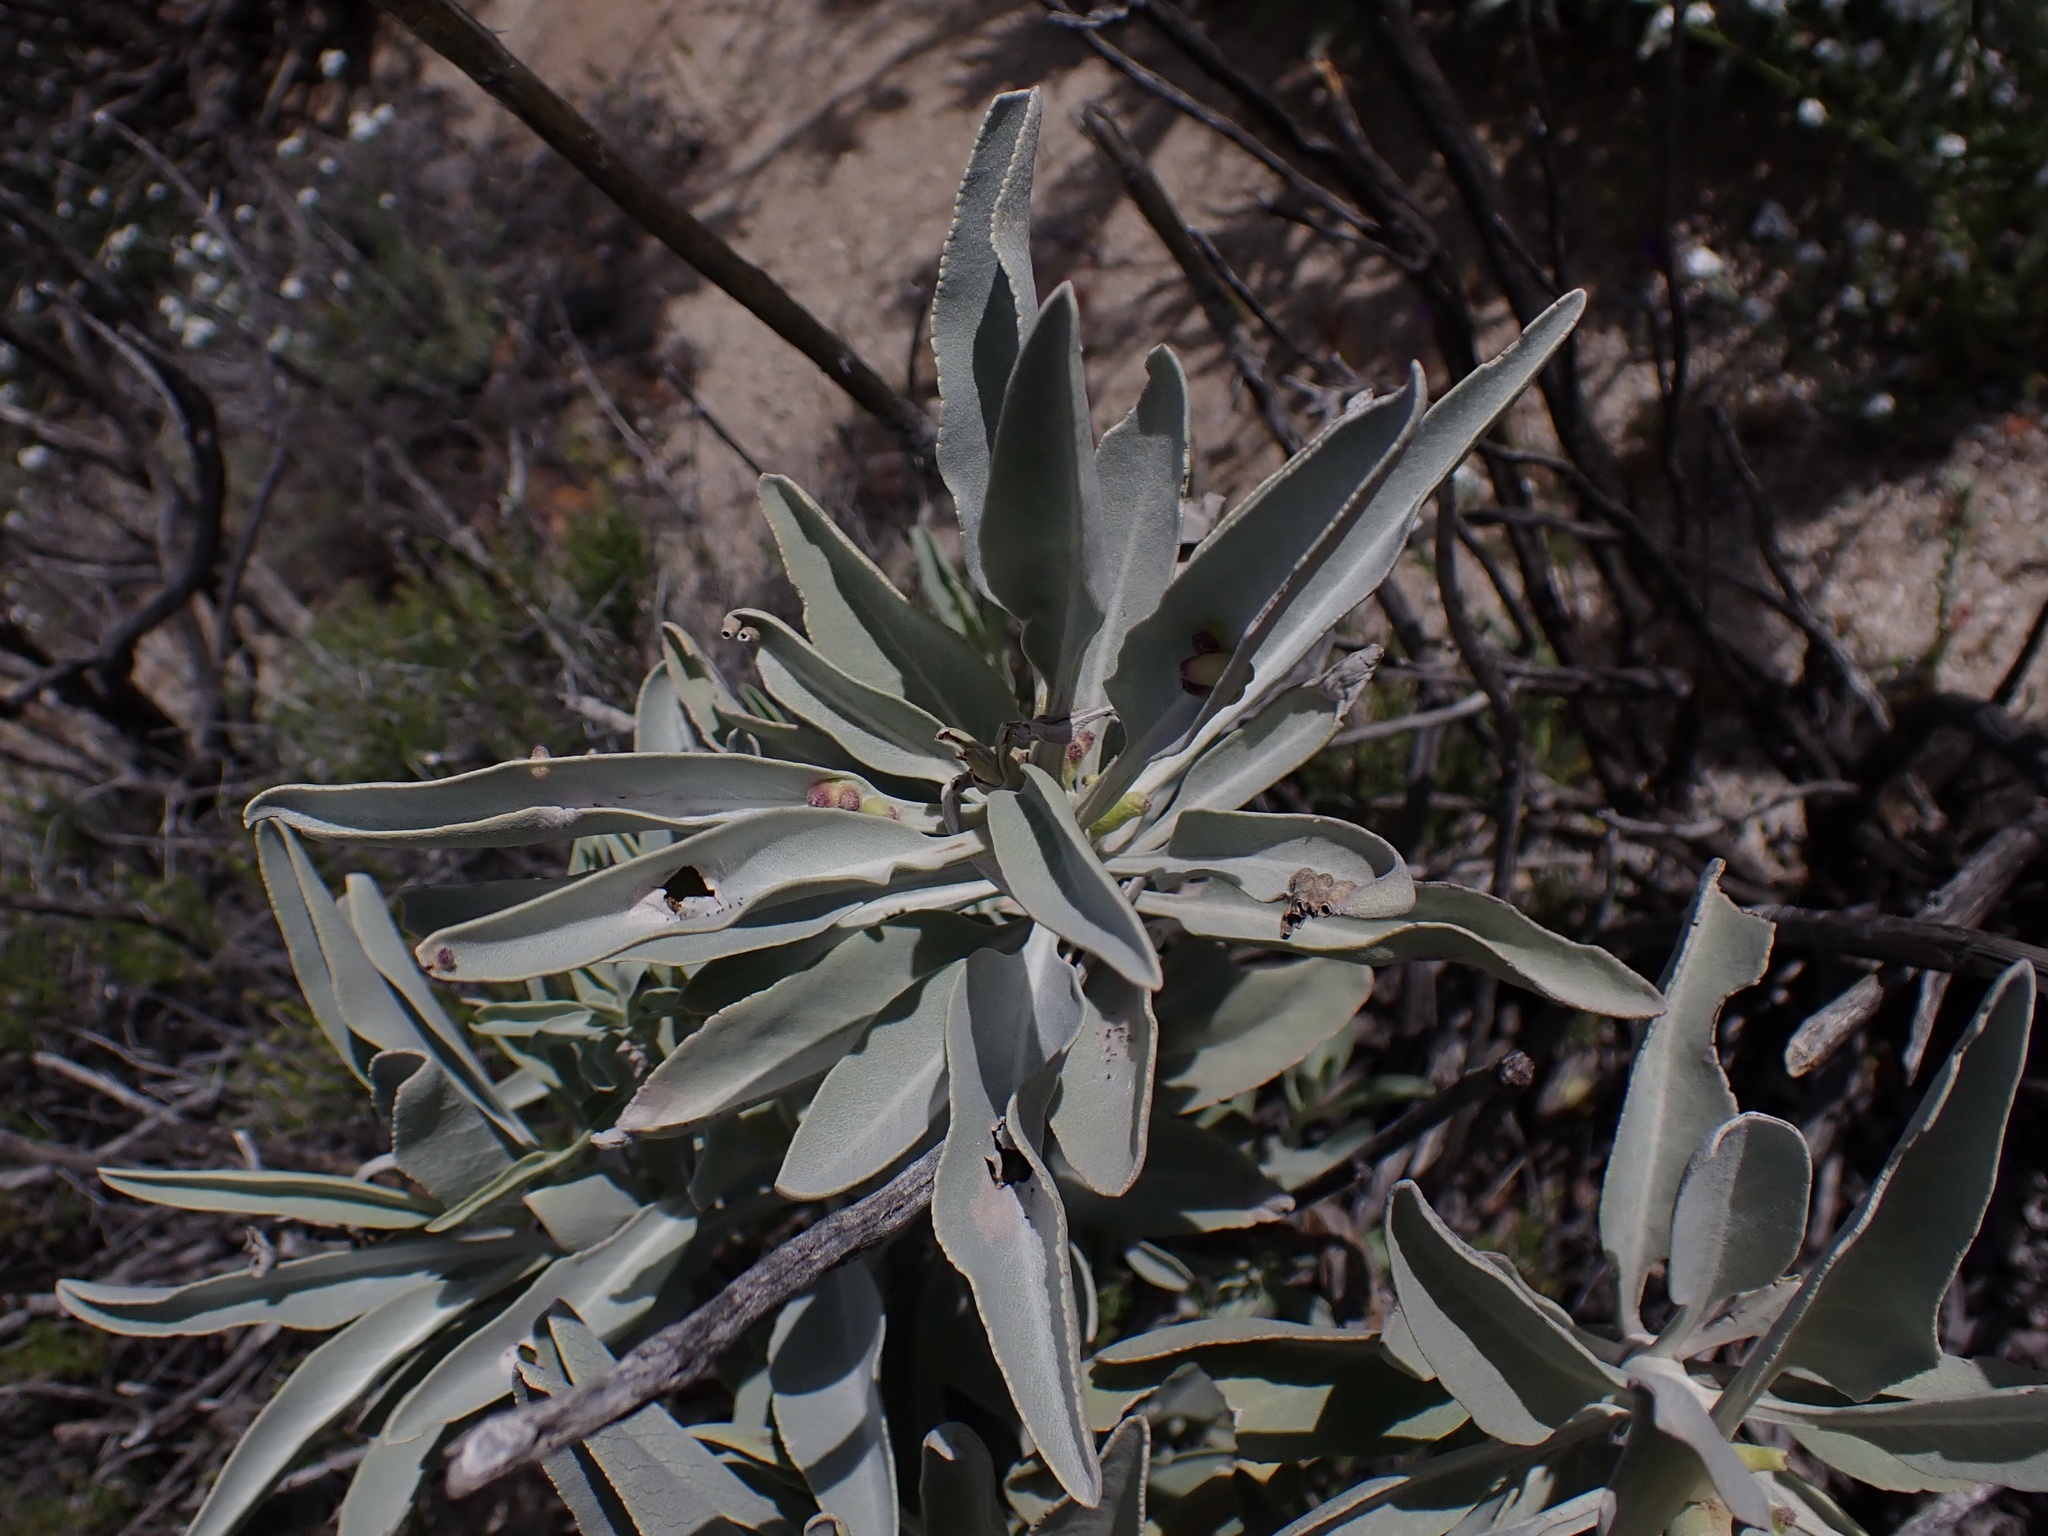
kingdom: Plantae
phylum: Tracheophyta
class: Magnoliopsida
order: Lamiales
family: Lamiaceae
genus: Salvia
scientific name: Salvia apiana
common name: White sage
